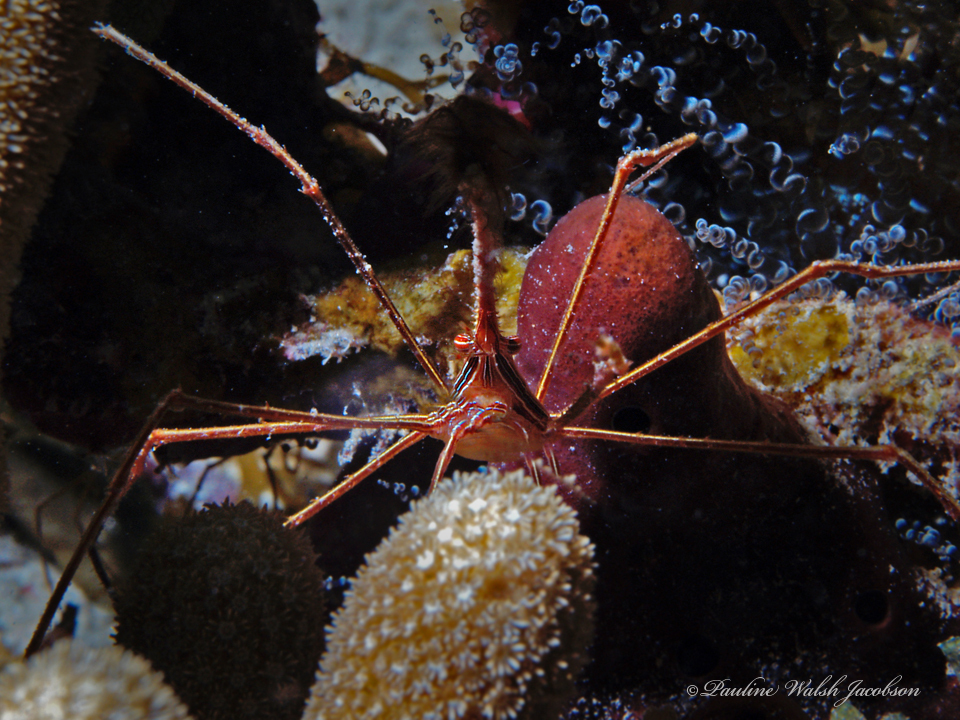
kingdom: Animalia
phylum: Arthropoda
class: Malacostraca
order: Decapoda
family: Inachoididae
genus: Stenorhynchus
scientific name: Stenorhynchus seticornis
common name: Arrow crab
